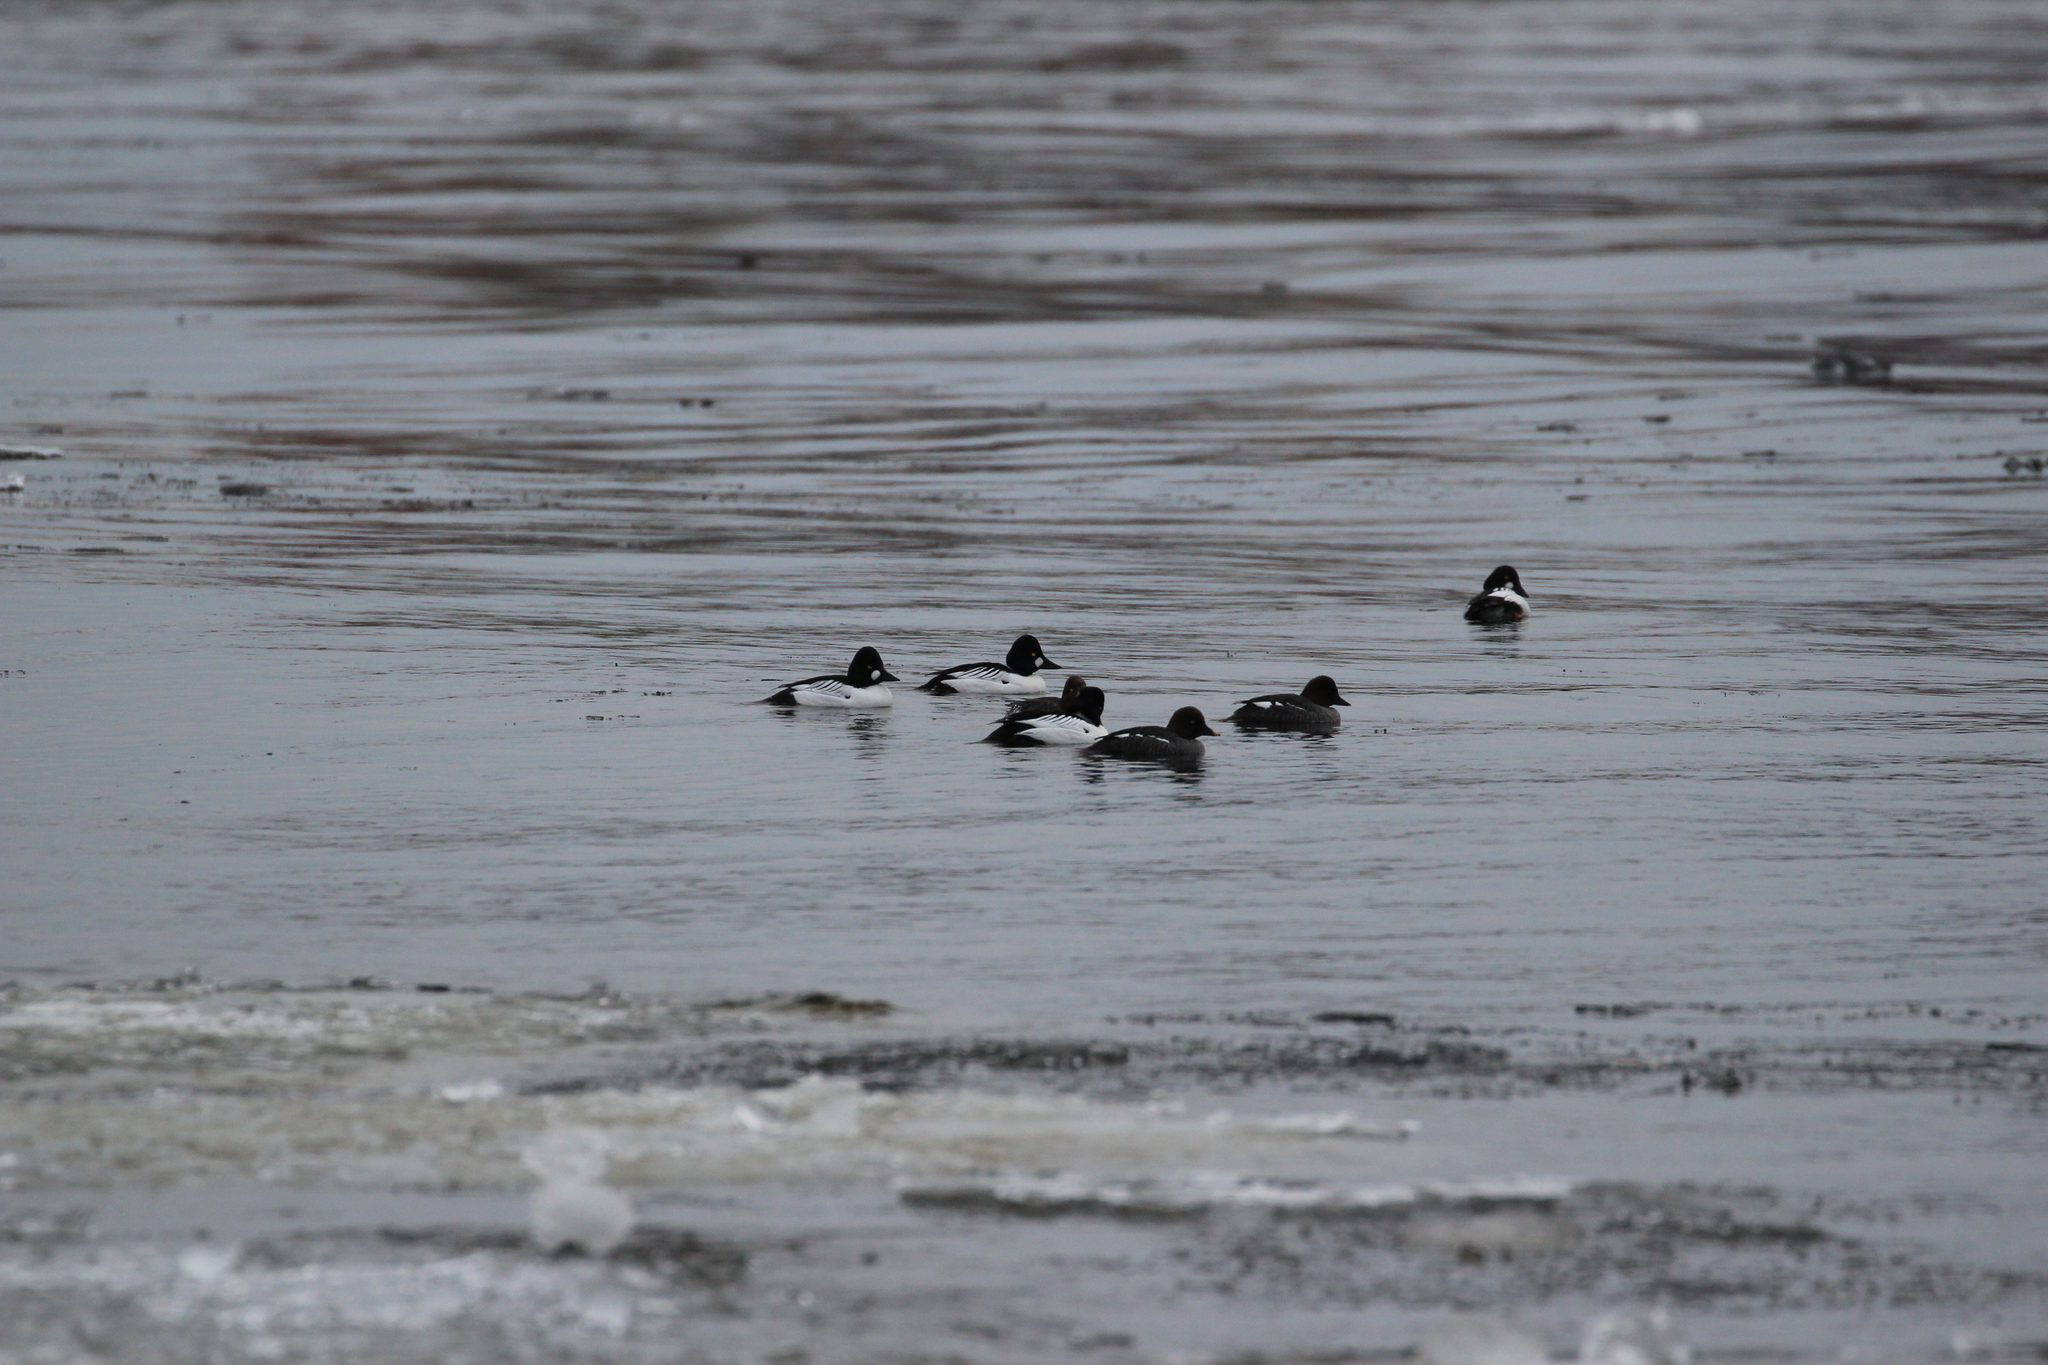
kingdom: Animalia
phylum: Chordata
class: Aves
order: Anseriformes
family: Anatidae
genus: Bucephala
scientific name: Bucephala clangula
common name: Common goldeneye
